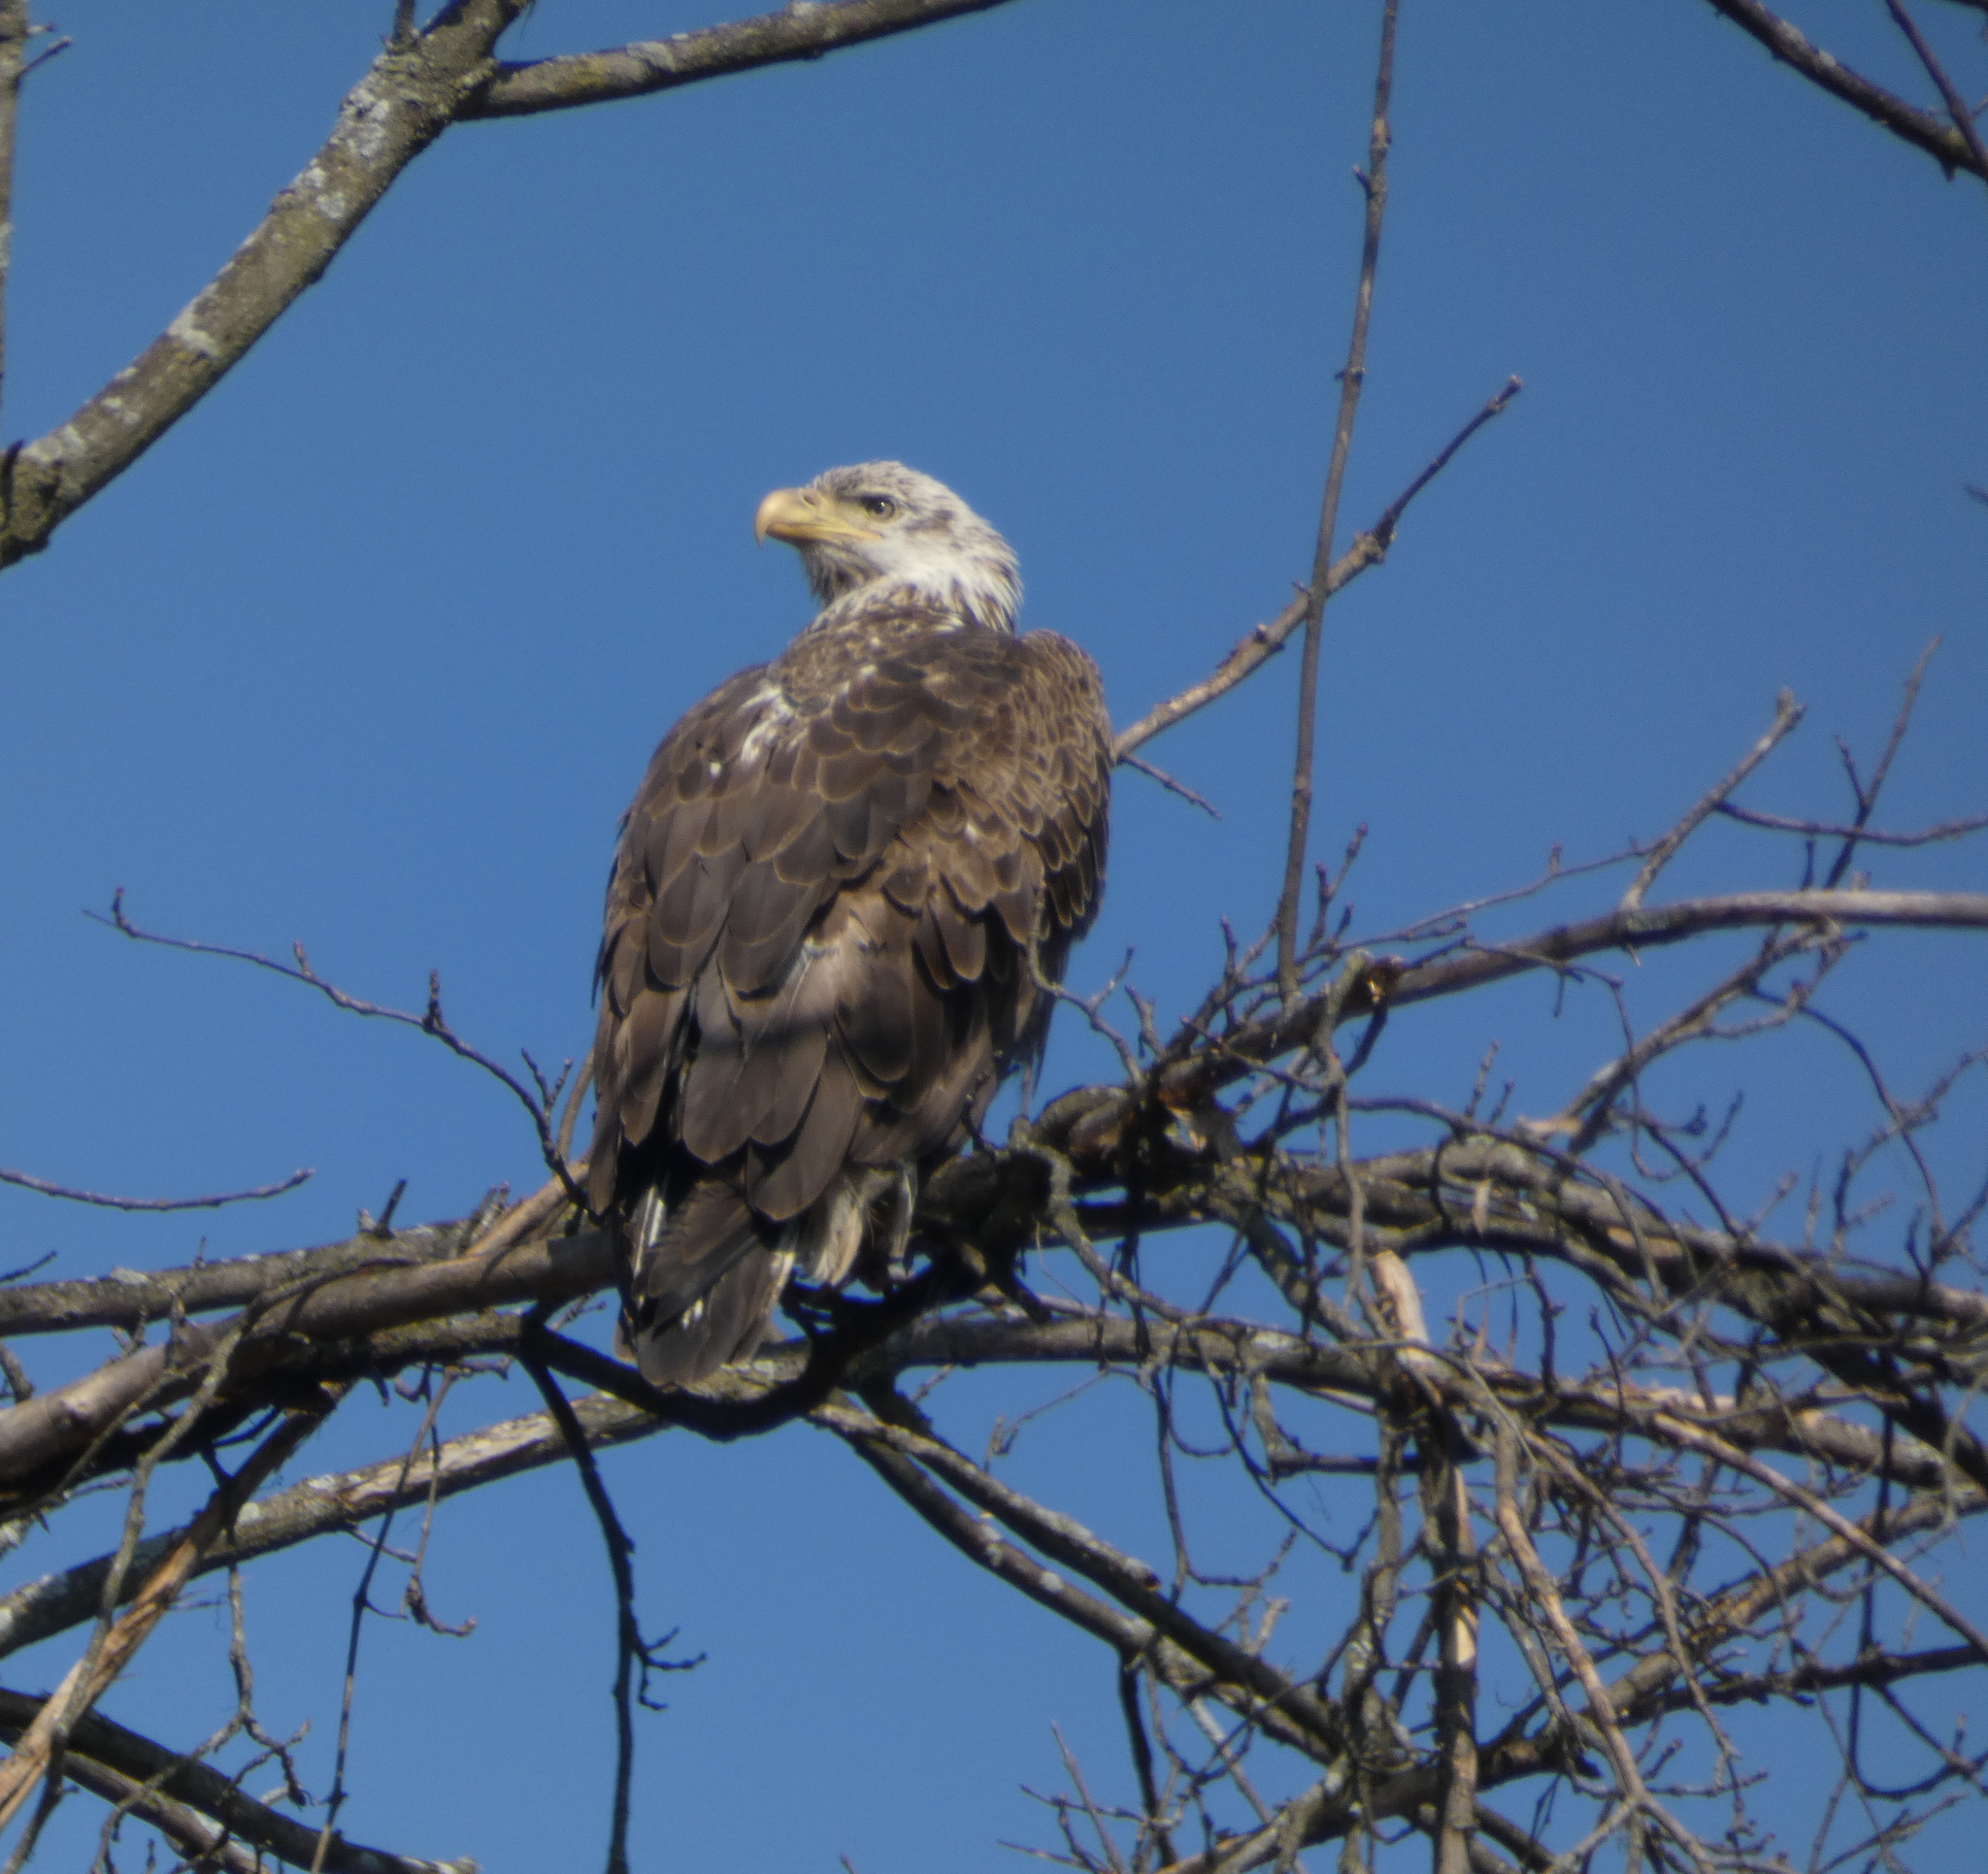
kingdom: Animalia
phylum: Chordata
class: Aves
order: Accipitriformes
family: Accipitridae
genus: Haliaeetus
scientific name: Haliaeetus leucocephalus
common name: Bald eagle
